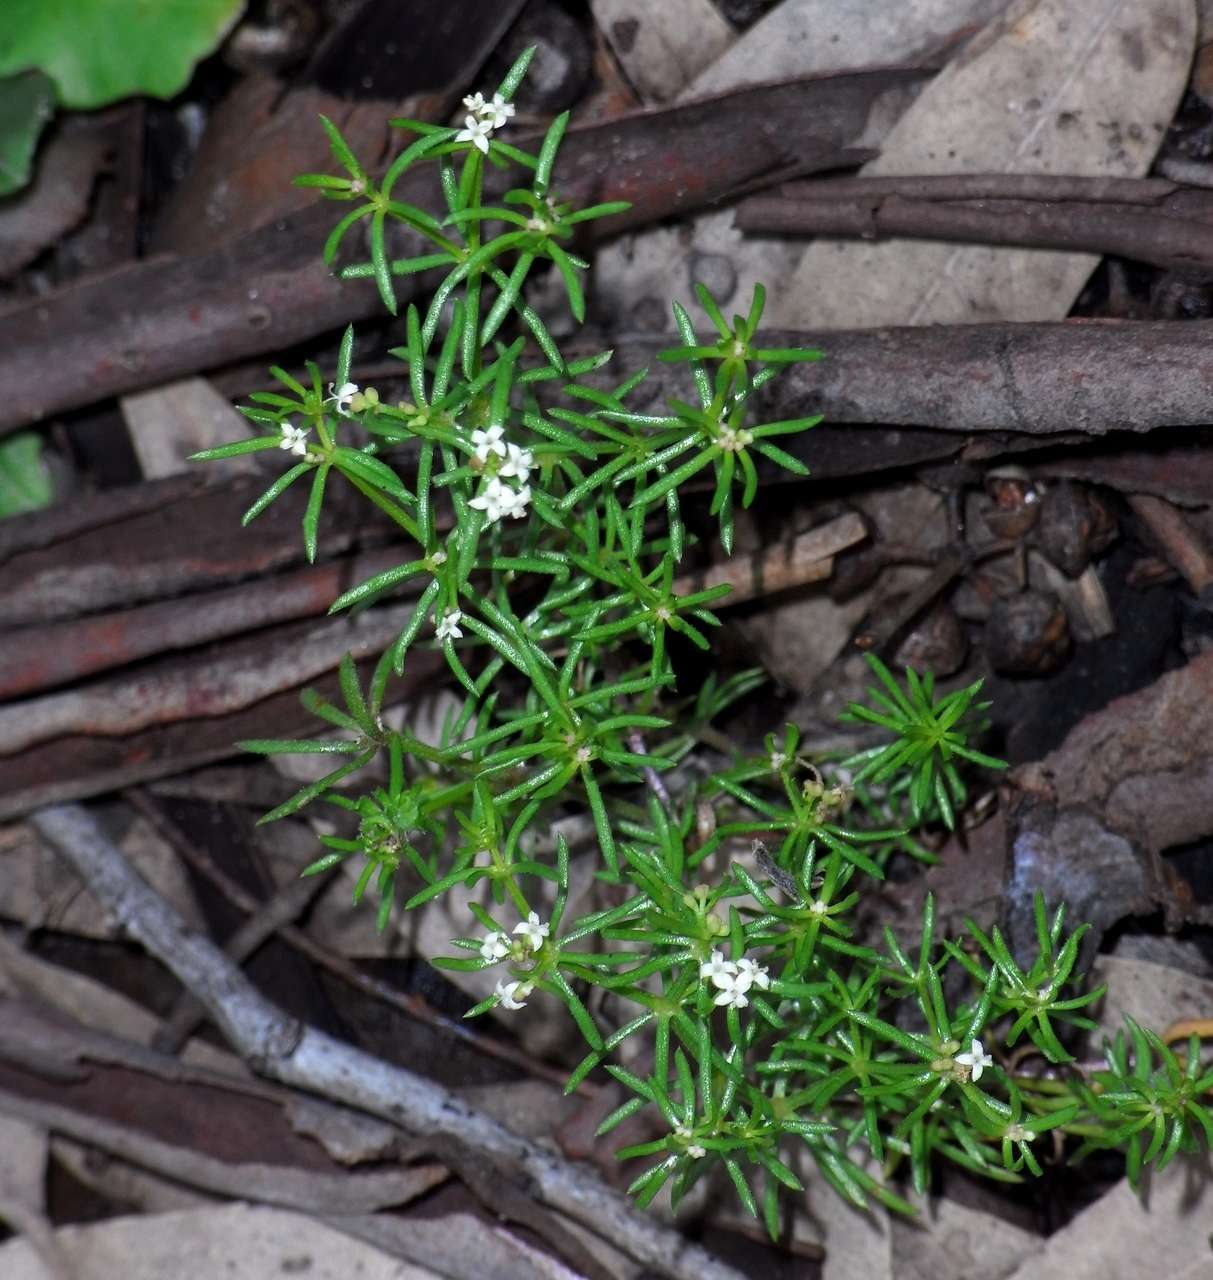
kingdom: Plantae
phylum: Tracheophyta
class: Magnoliopsida
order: Gentianales
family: Rubiaceae
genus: Asperula
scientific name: Asperula conferta
